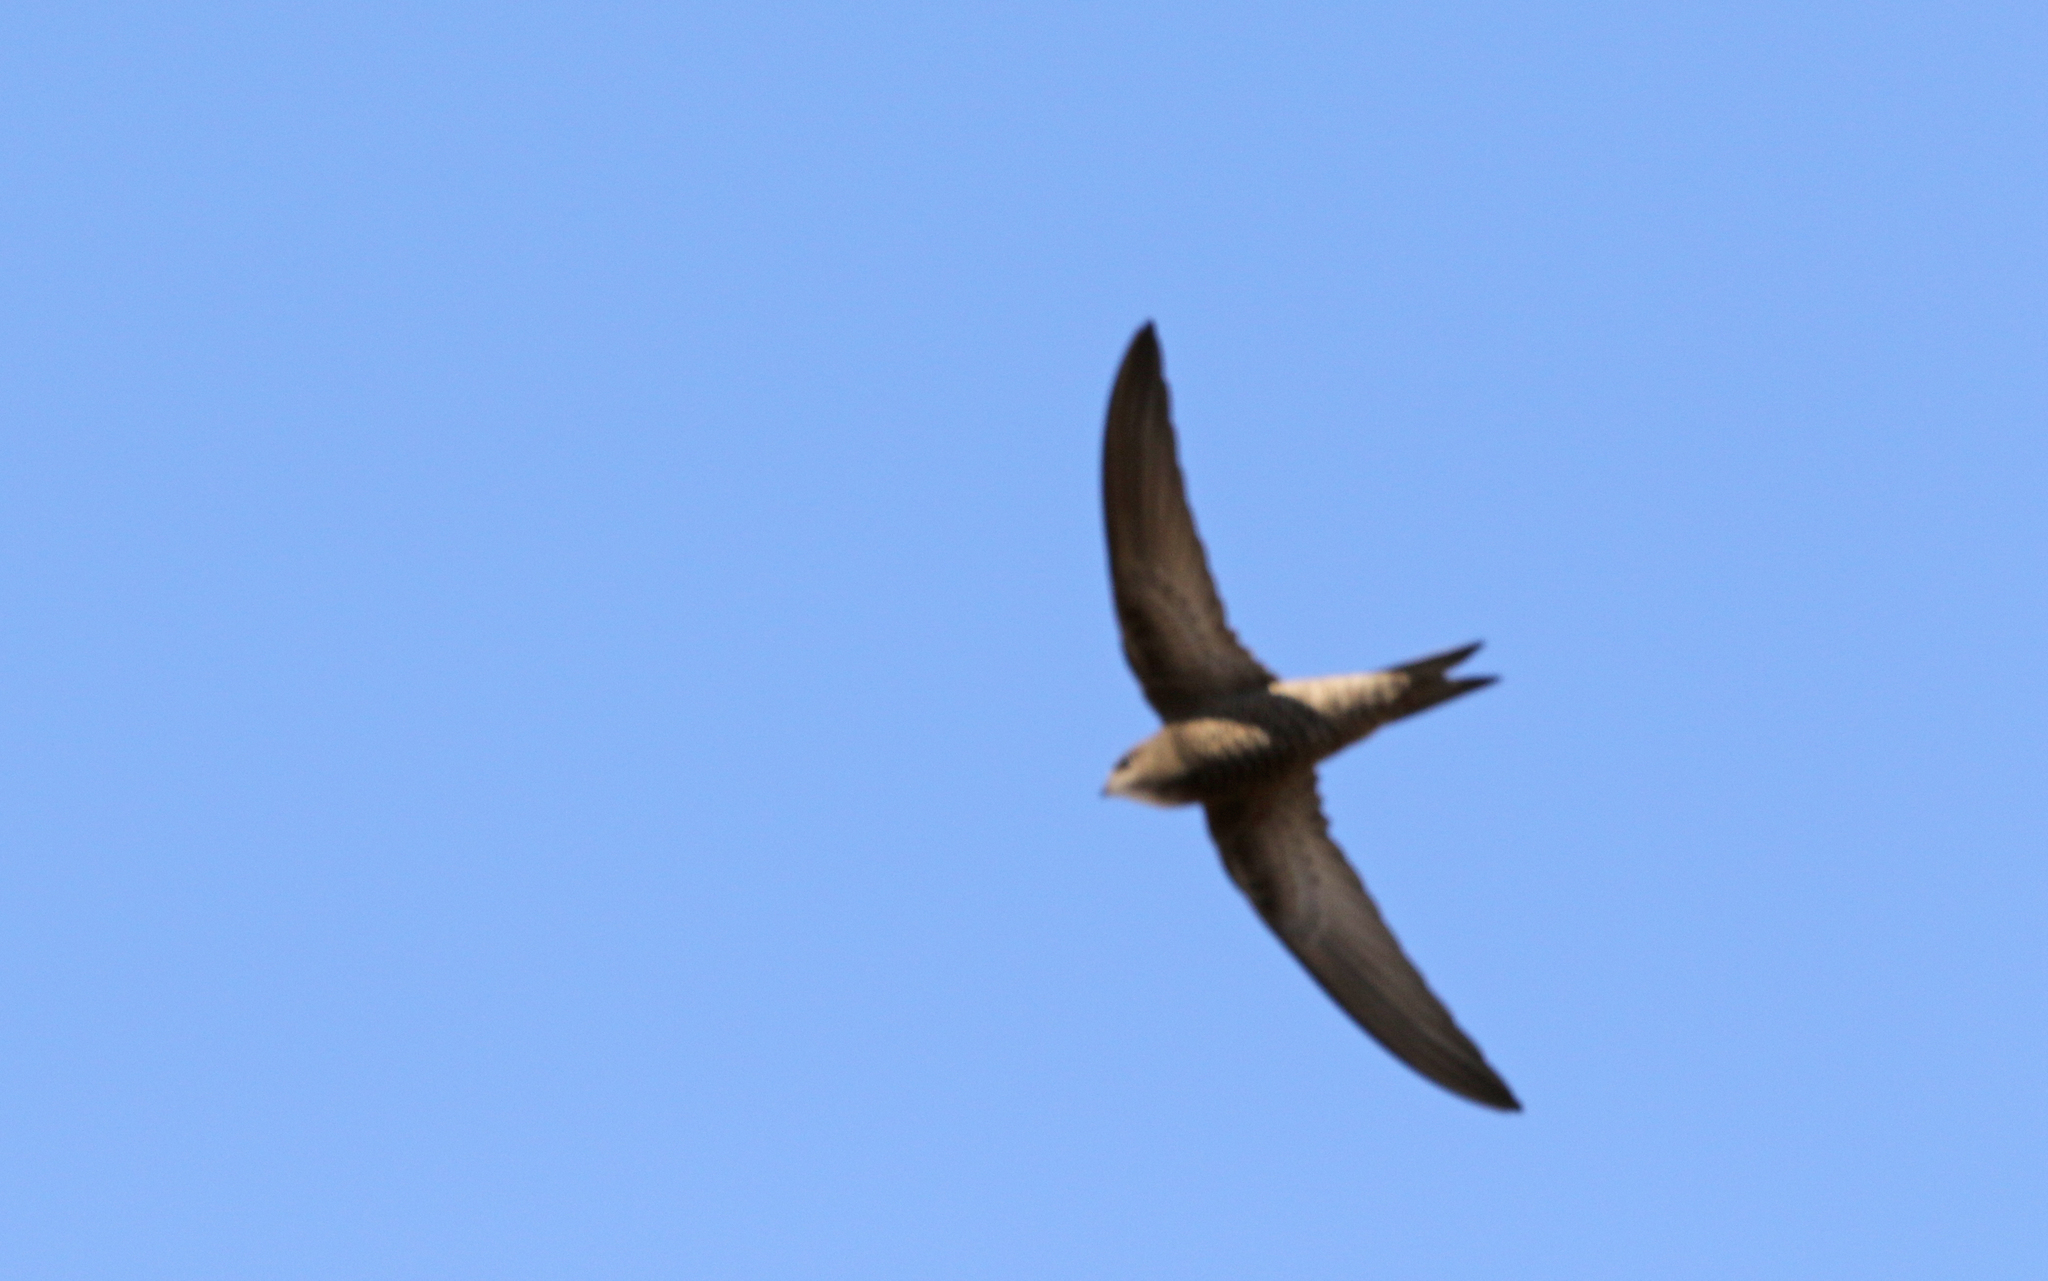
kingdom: Animalia
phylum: Chordata
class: Aves
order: Apodiformes
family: Apodidae
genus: Apus
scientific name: Apus pallidus
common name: Pallid swift
